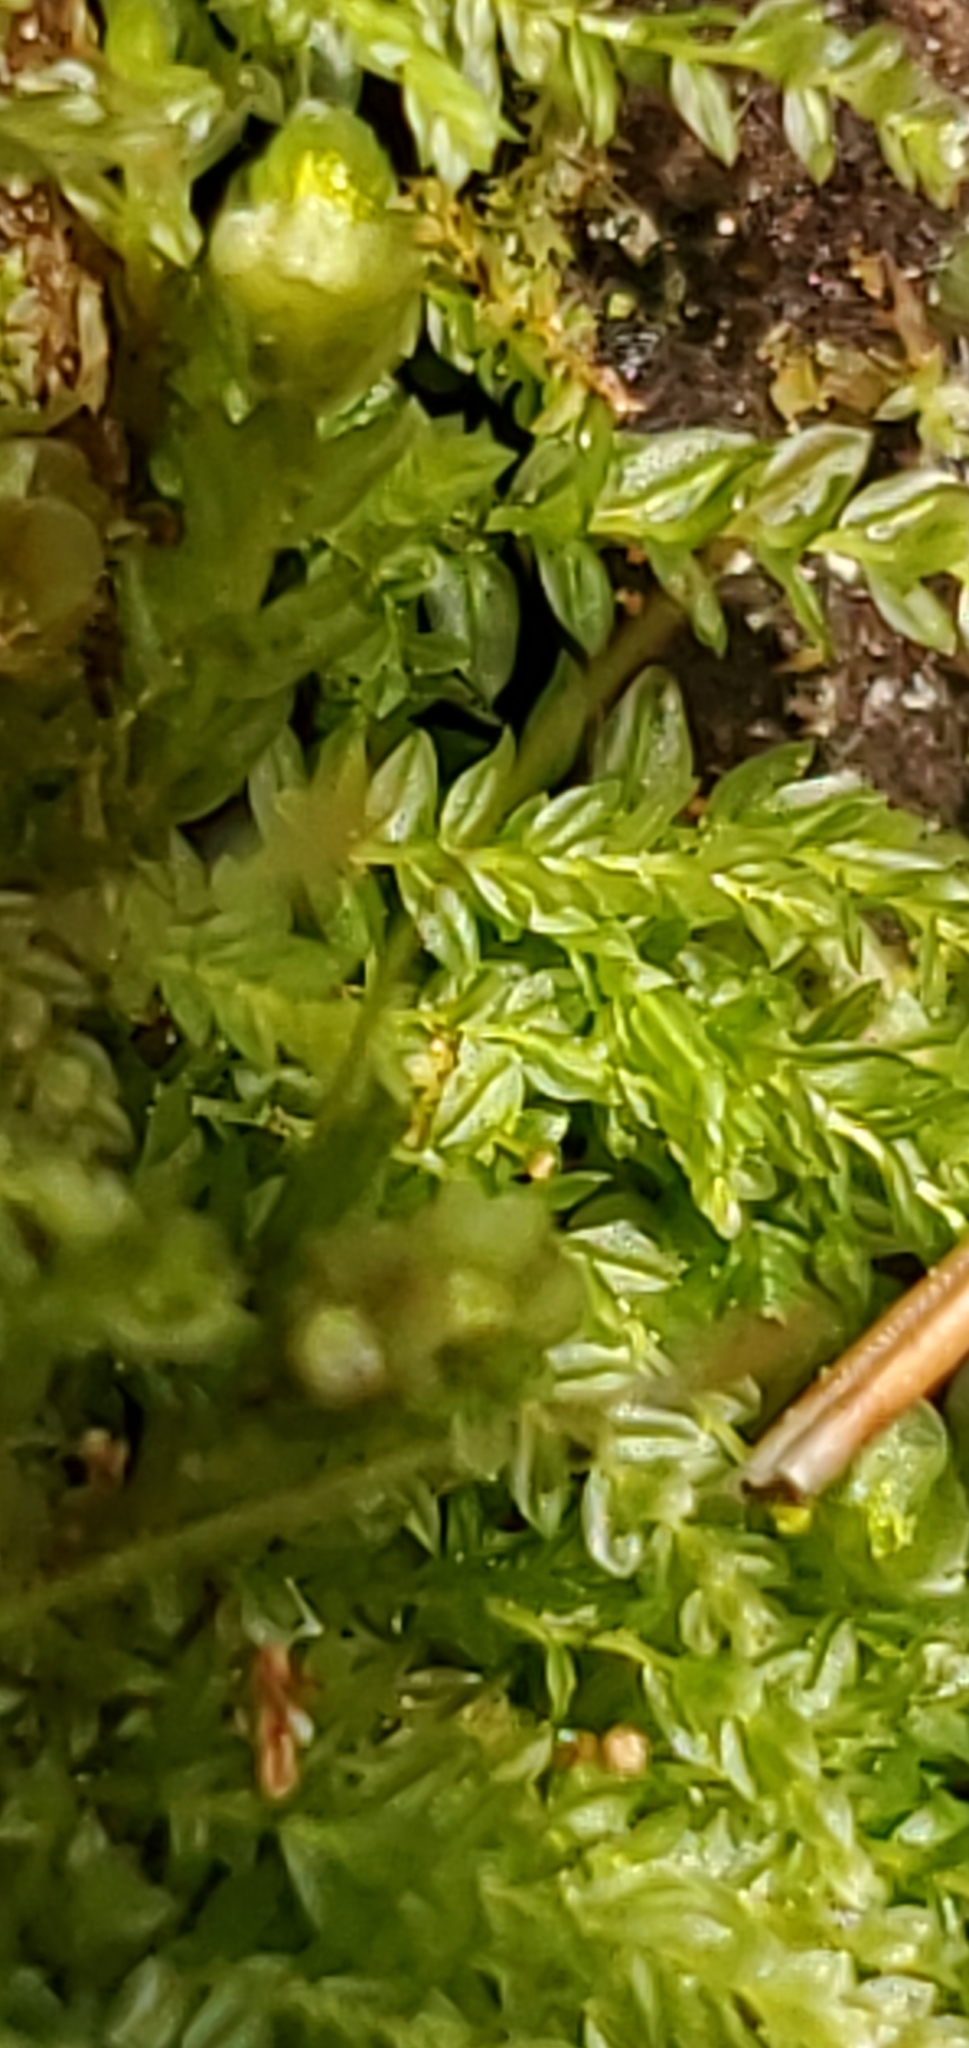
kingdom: Plantae
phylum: Bryophyta
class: Polytrichopsida
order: Tetraphidales
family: Tetraphidaceae
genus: Tetraphis
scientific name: Tetraphis pellucida
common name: Common four-toothed moss
